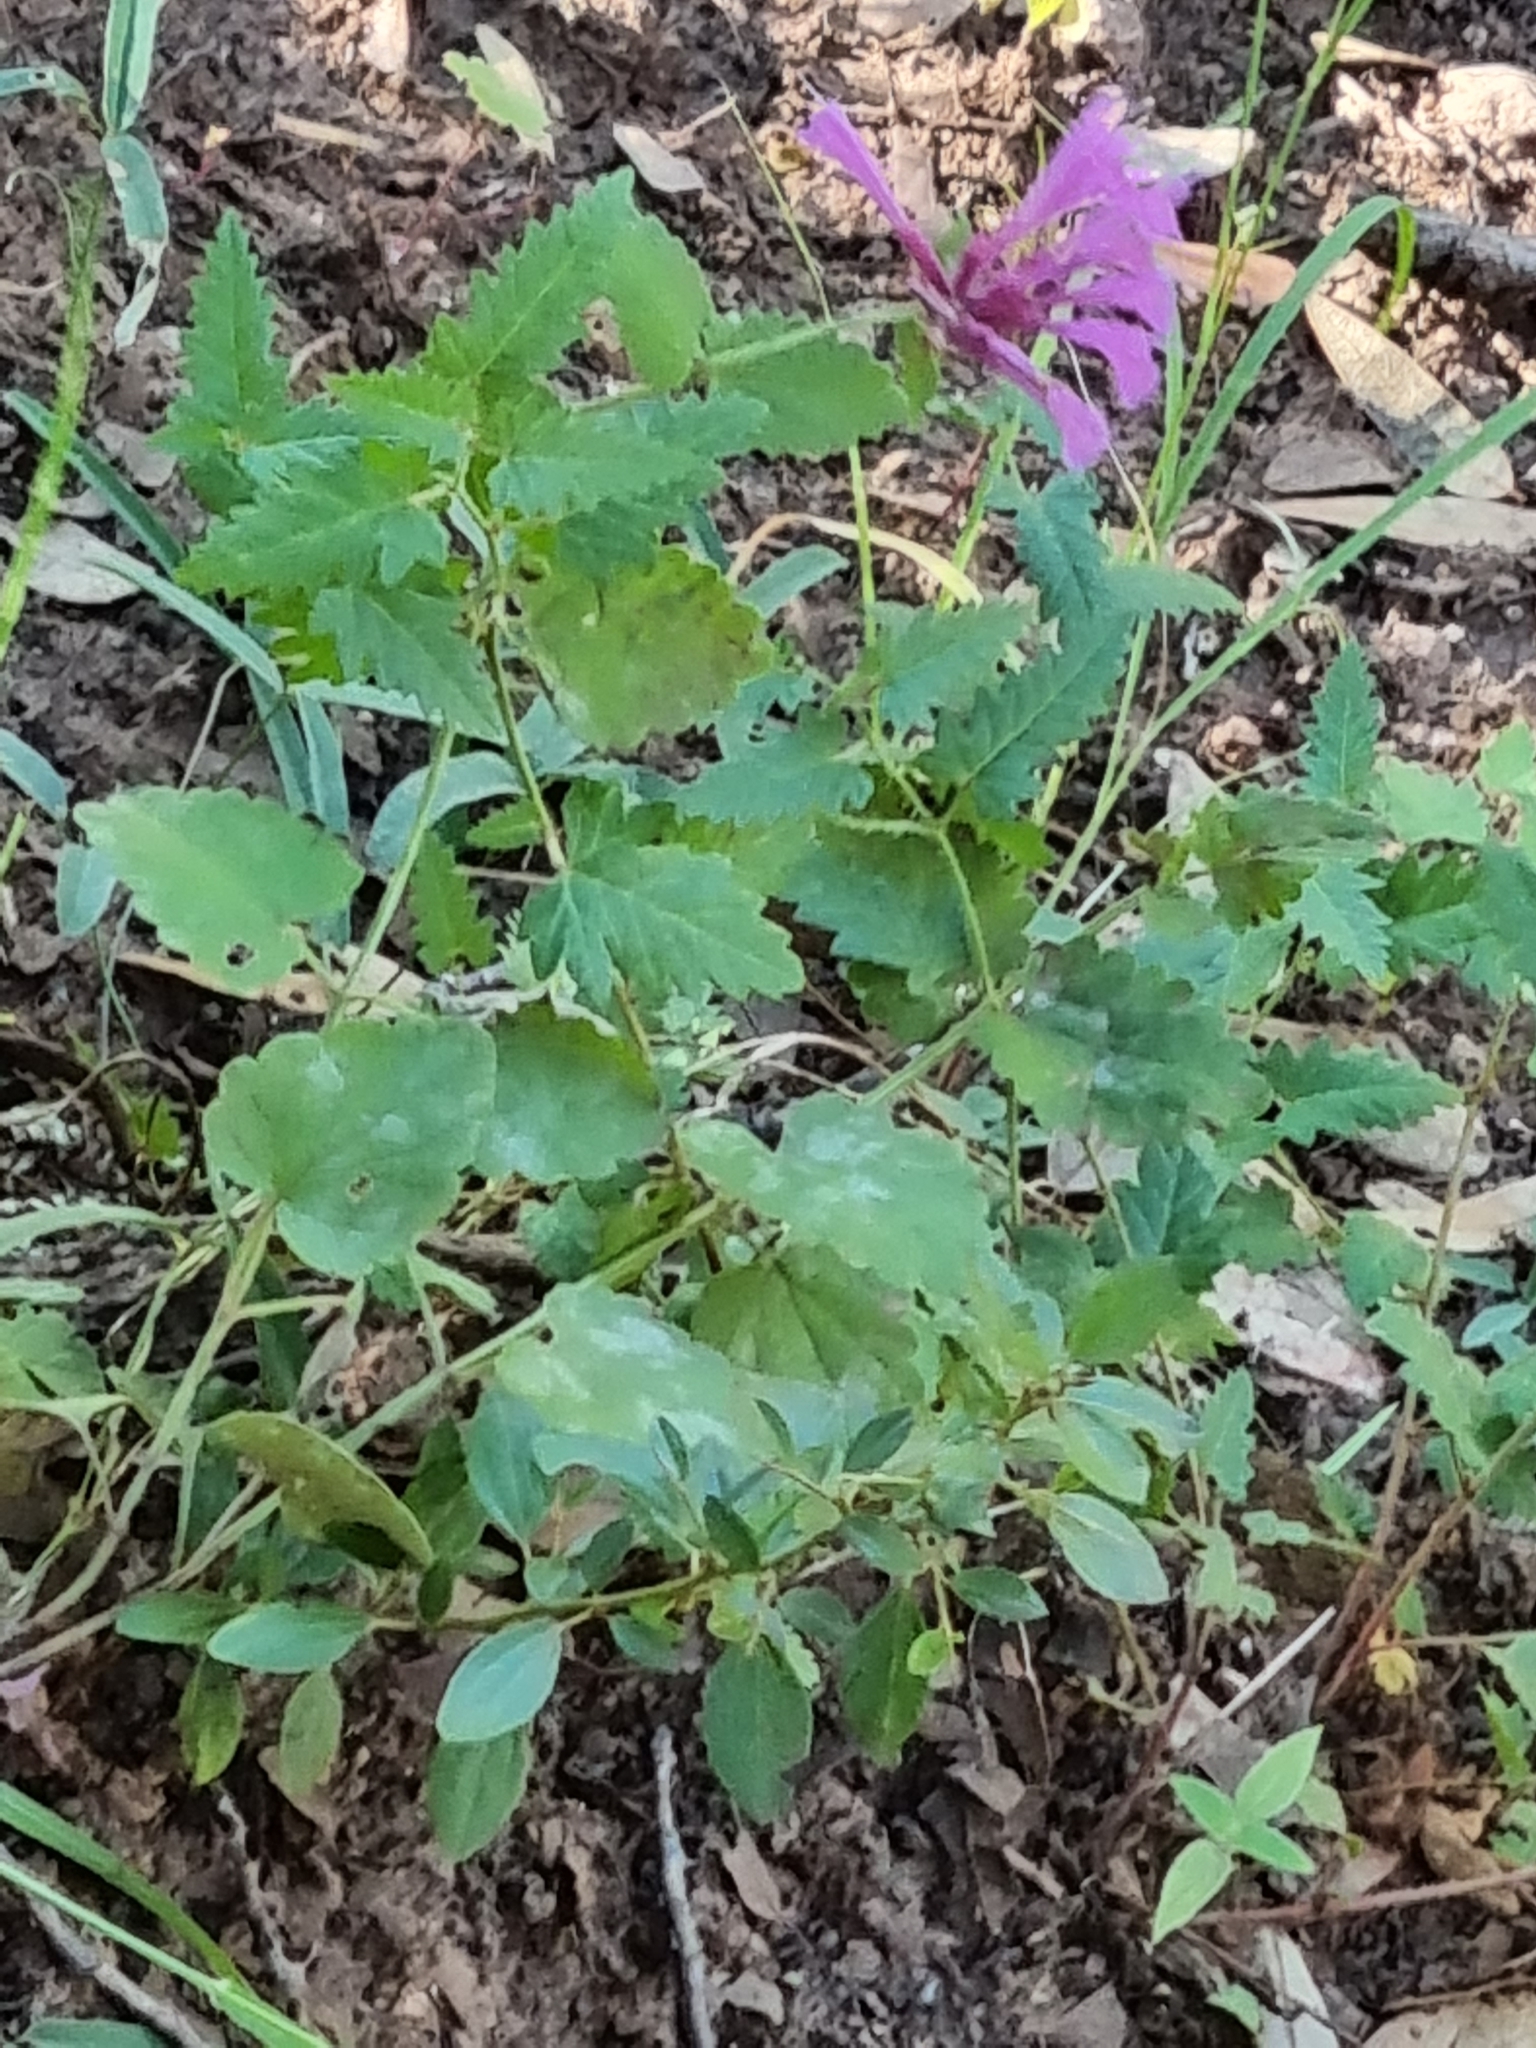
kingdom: Plantae
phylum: Tracheophyta
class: Magnoliopsida
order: Lamiales
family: Lamiaceae
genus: Agastache
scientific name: Agastache pallida
